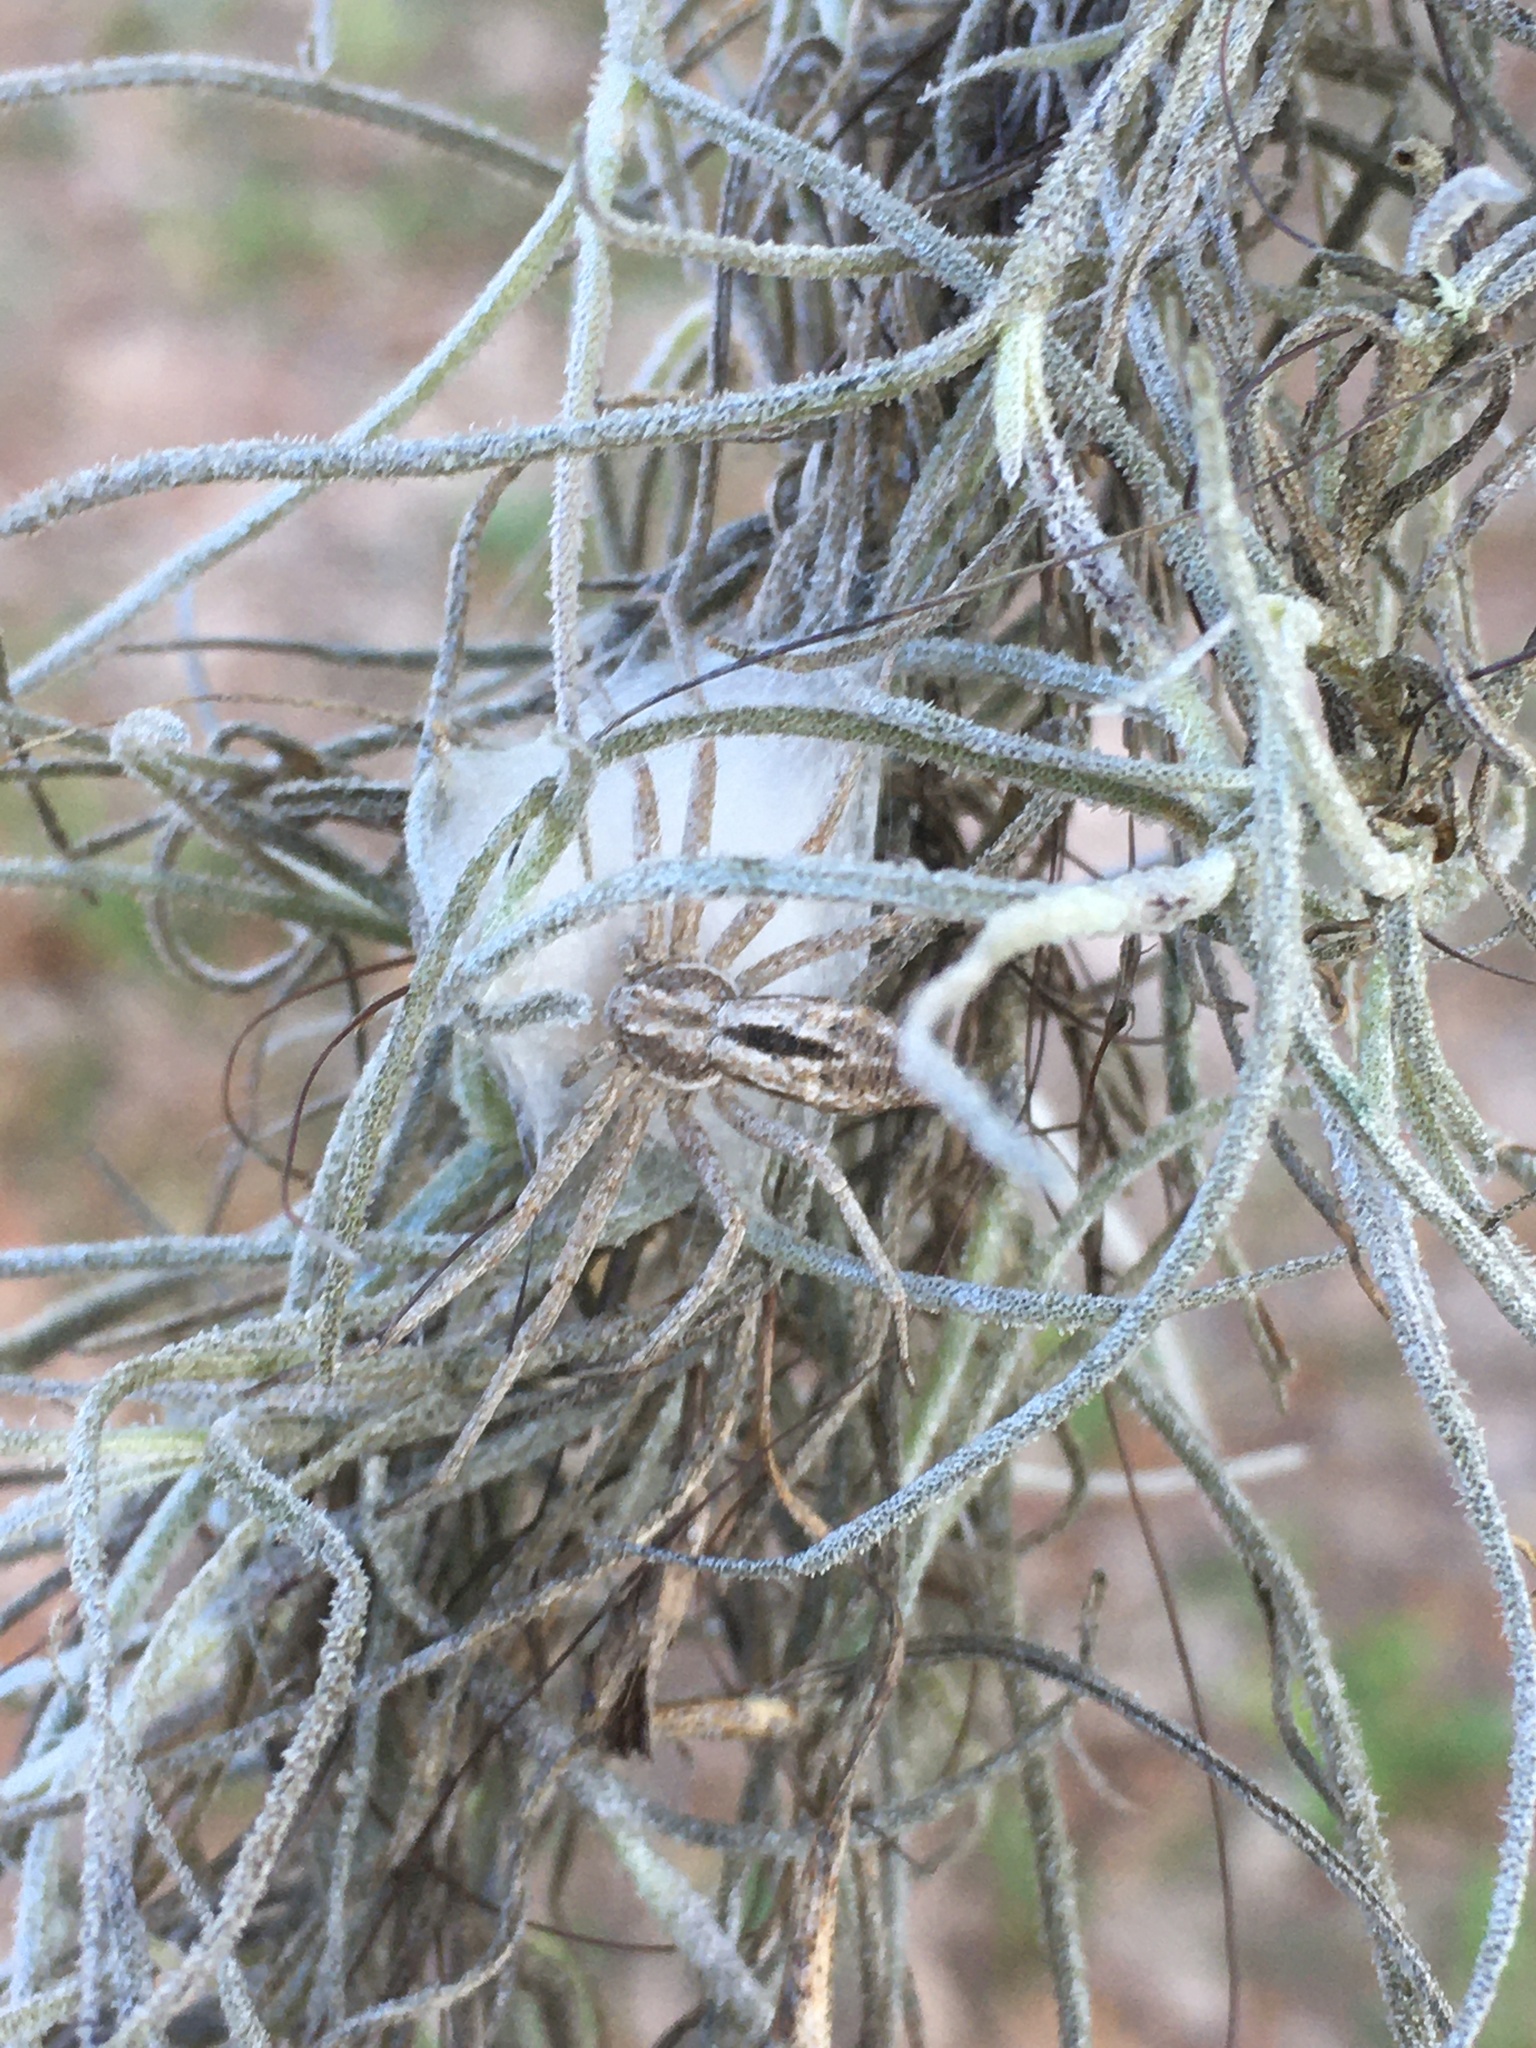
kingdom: Animalia
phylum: Arthropoda
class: Arachnida
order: Araneae
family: Philodromidae
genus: Philodromus
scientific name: Philodromus barrowsi
